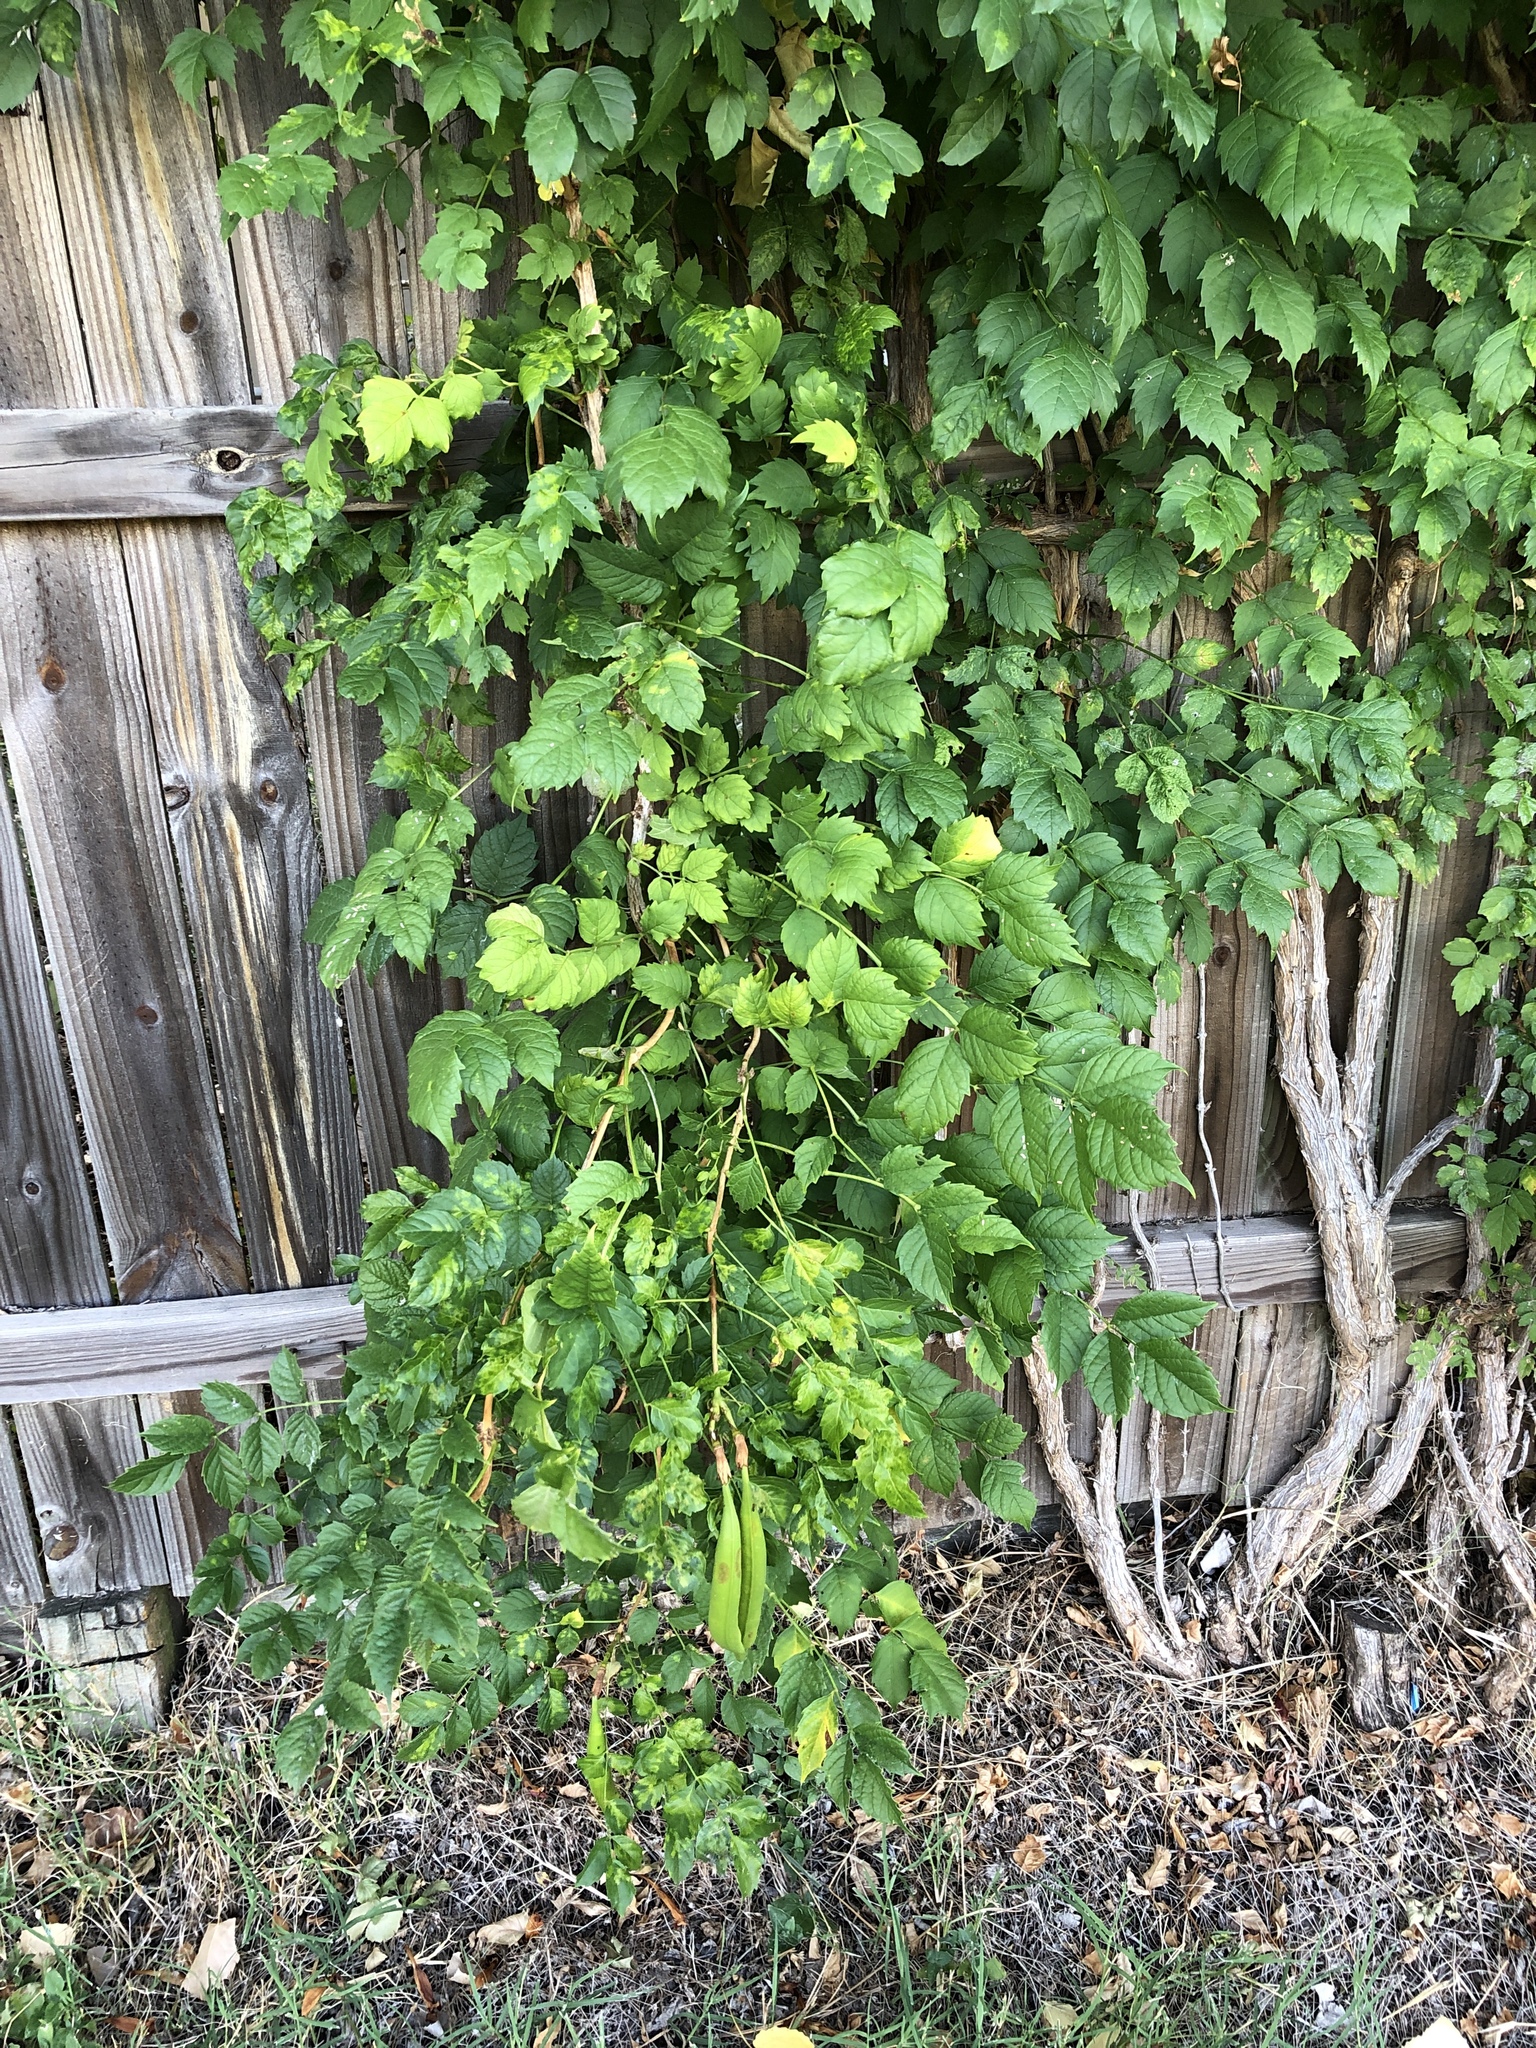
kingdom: Plantae
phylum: Tracheophyta
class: Magnoliopsida
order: Lamiales
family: Bignoniaceae
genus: Campsis
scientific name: Campsis radicans
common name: Trumpet-creeper
